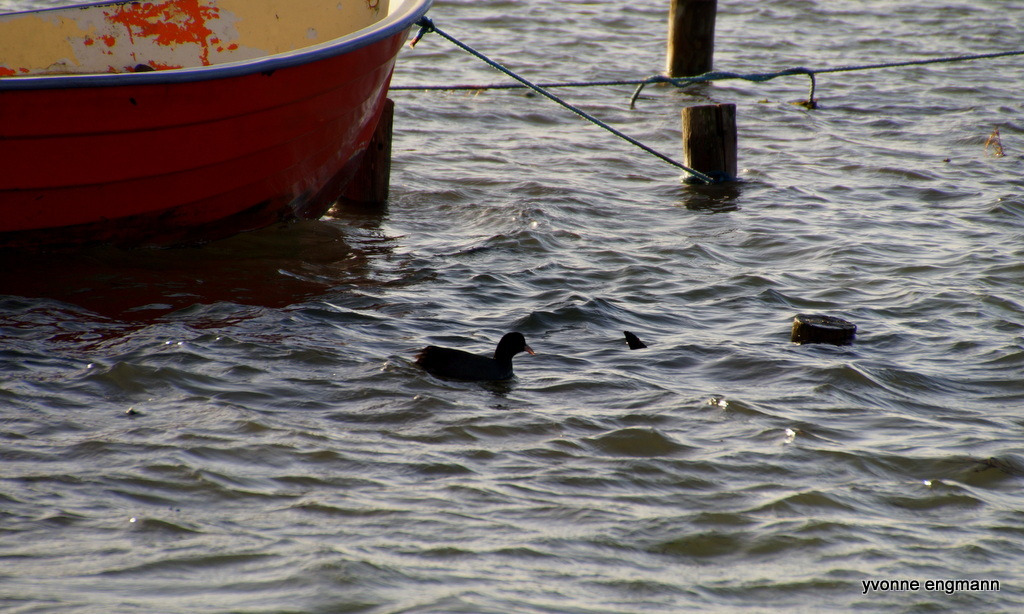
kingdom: Animalia
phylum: Chordata
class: Aves
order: Gruiformes
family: Rallidae
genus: Fulica
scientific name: Fulica atra
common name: Eurasian coot
